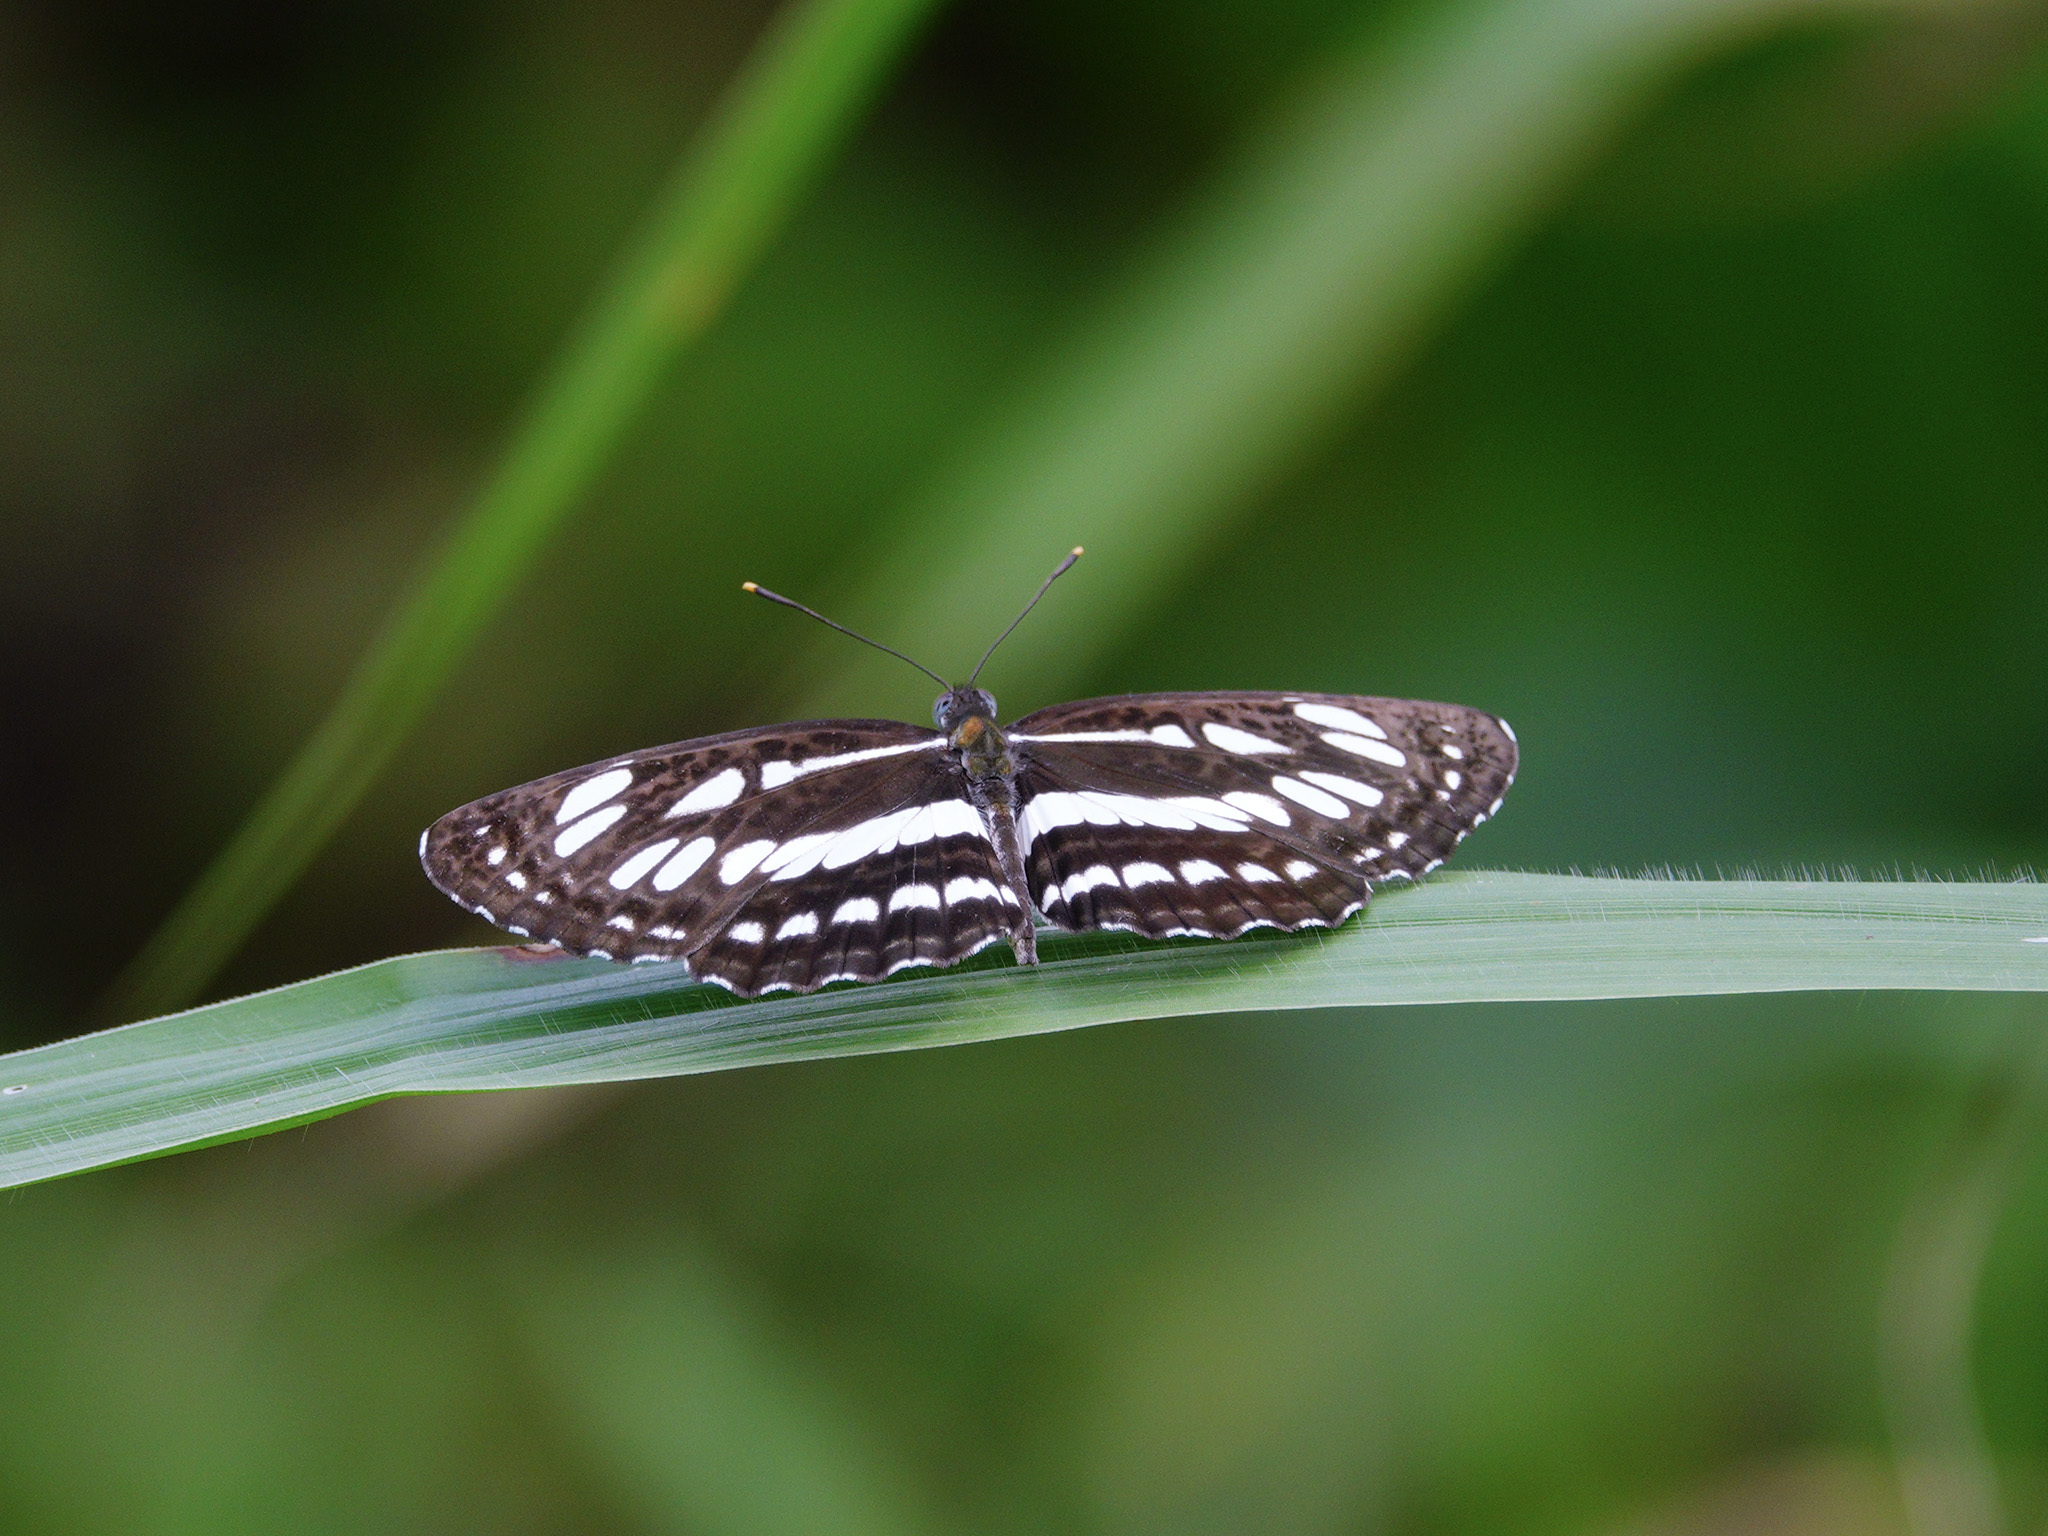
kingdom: Animalia
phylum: Arthropoda
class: Insecta
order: Lepidoptera
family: Nymphalidae
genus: Neptis
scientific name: Neptis hylas
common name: Common sailer
